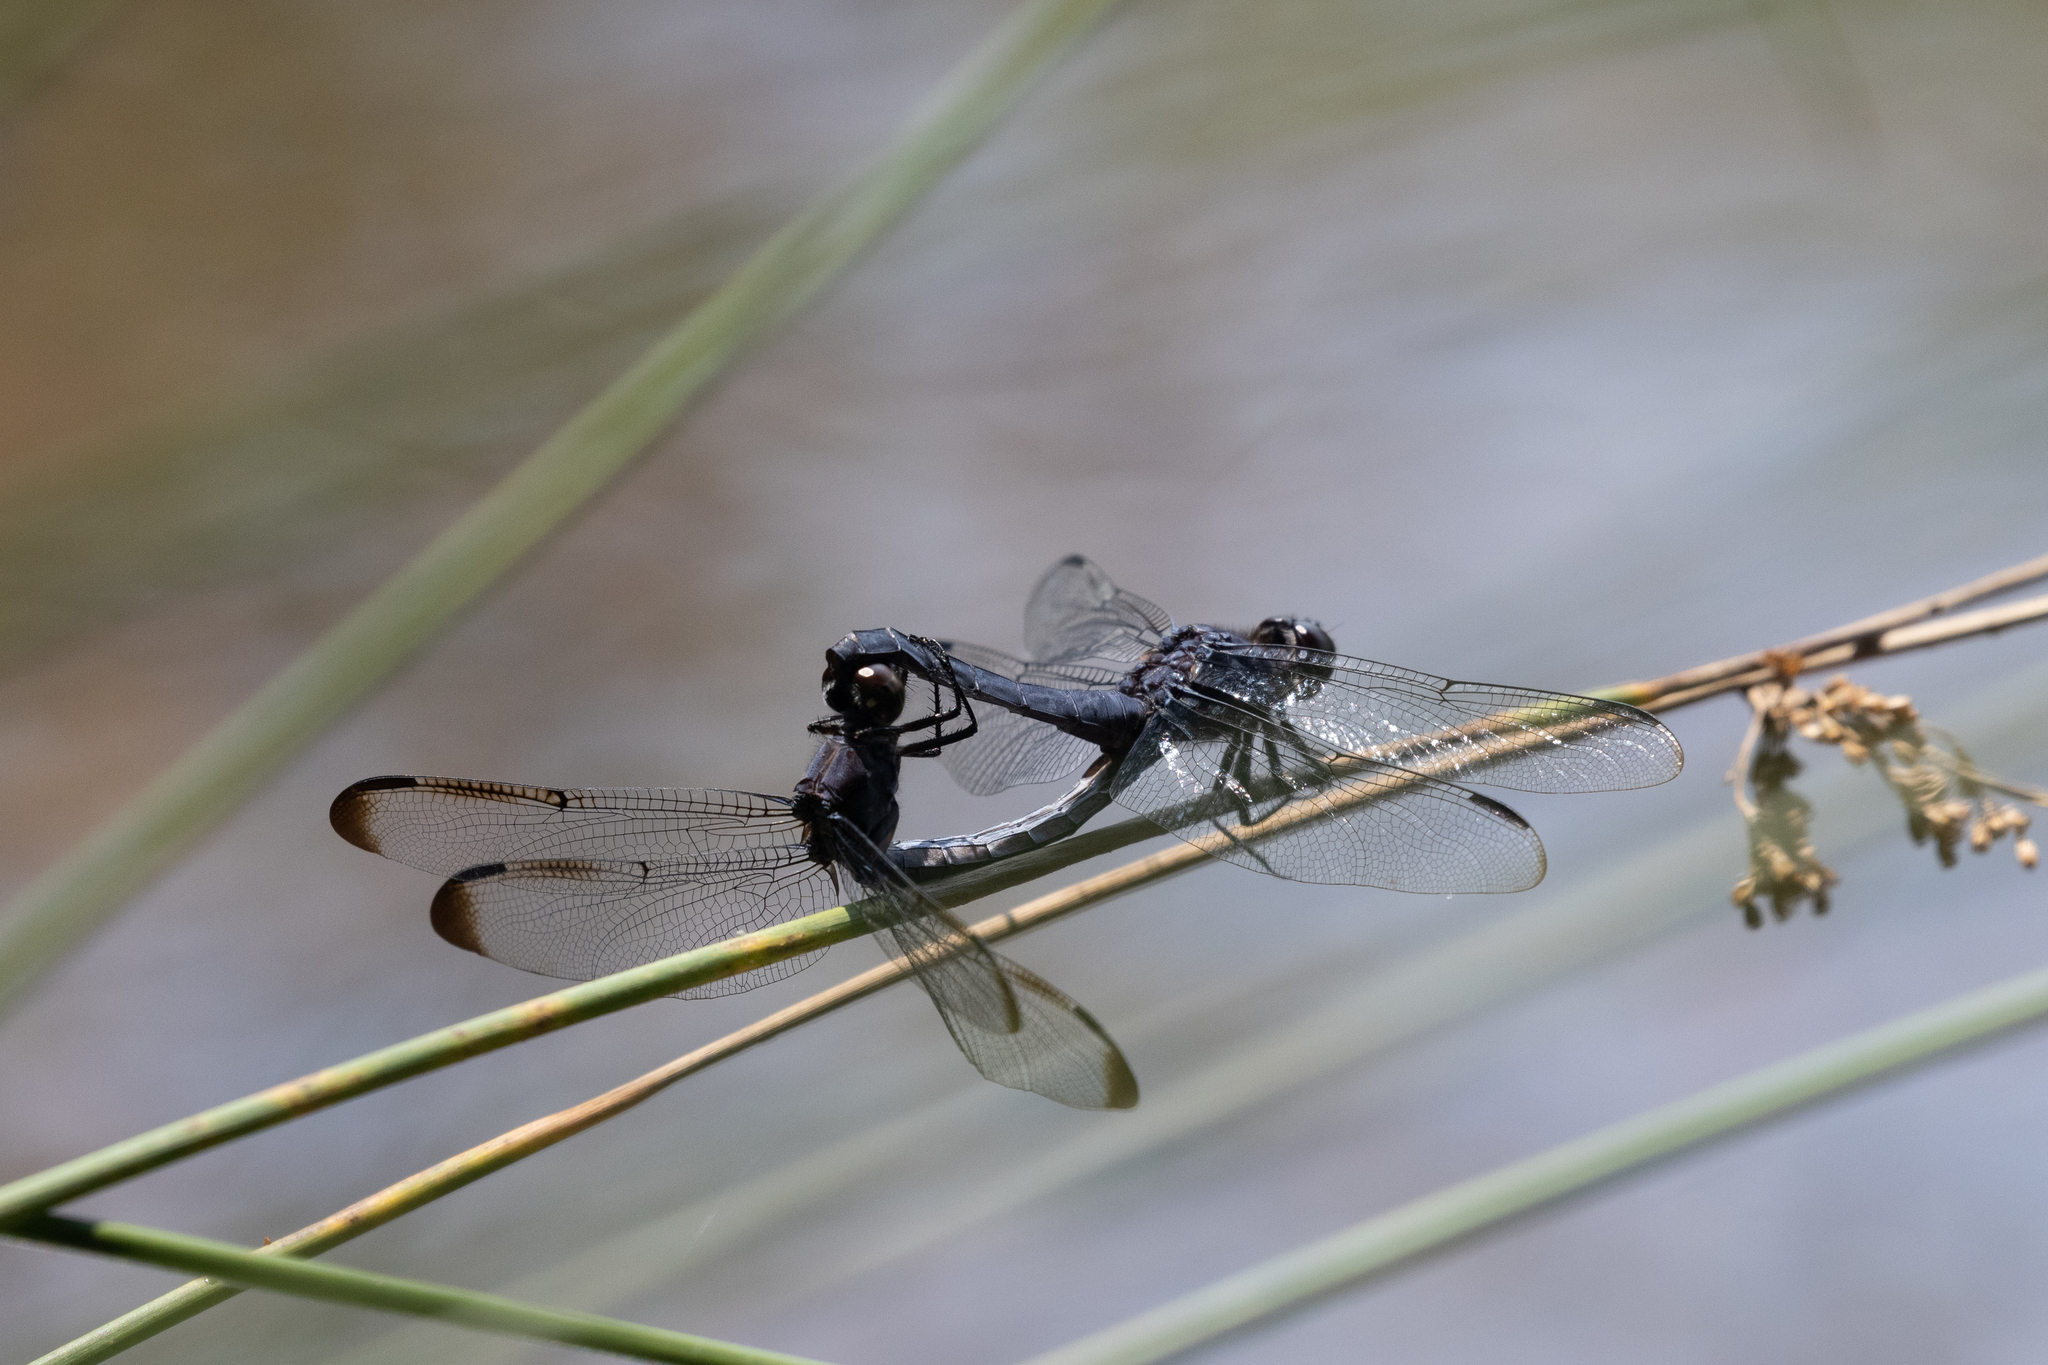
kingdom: Animalia
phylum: Arthropoda
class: Insecta
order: Odonata
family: Libellulidae
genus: Libellula
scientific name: Libellula incesta
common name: Slaty skimmer
